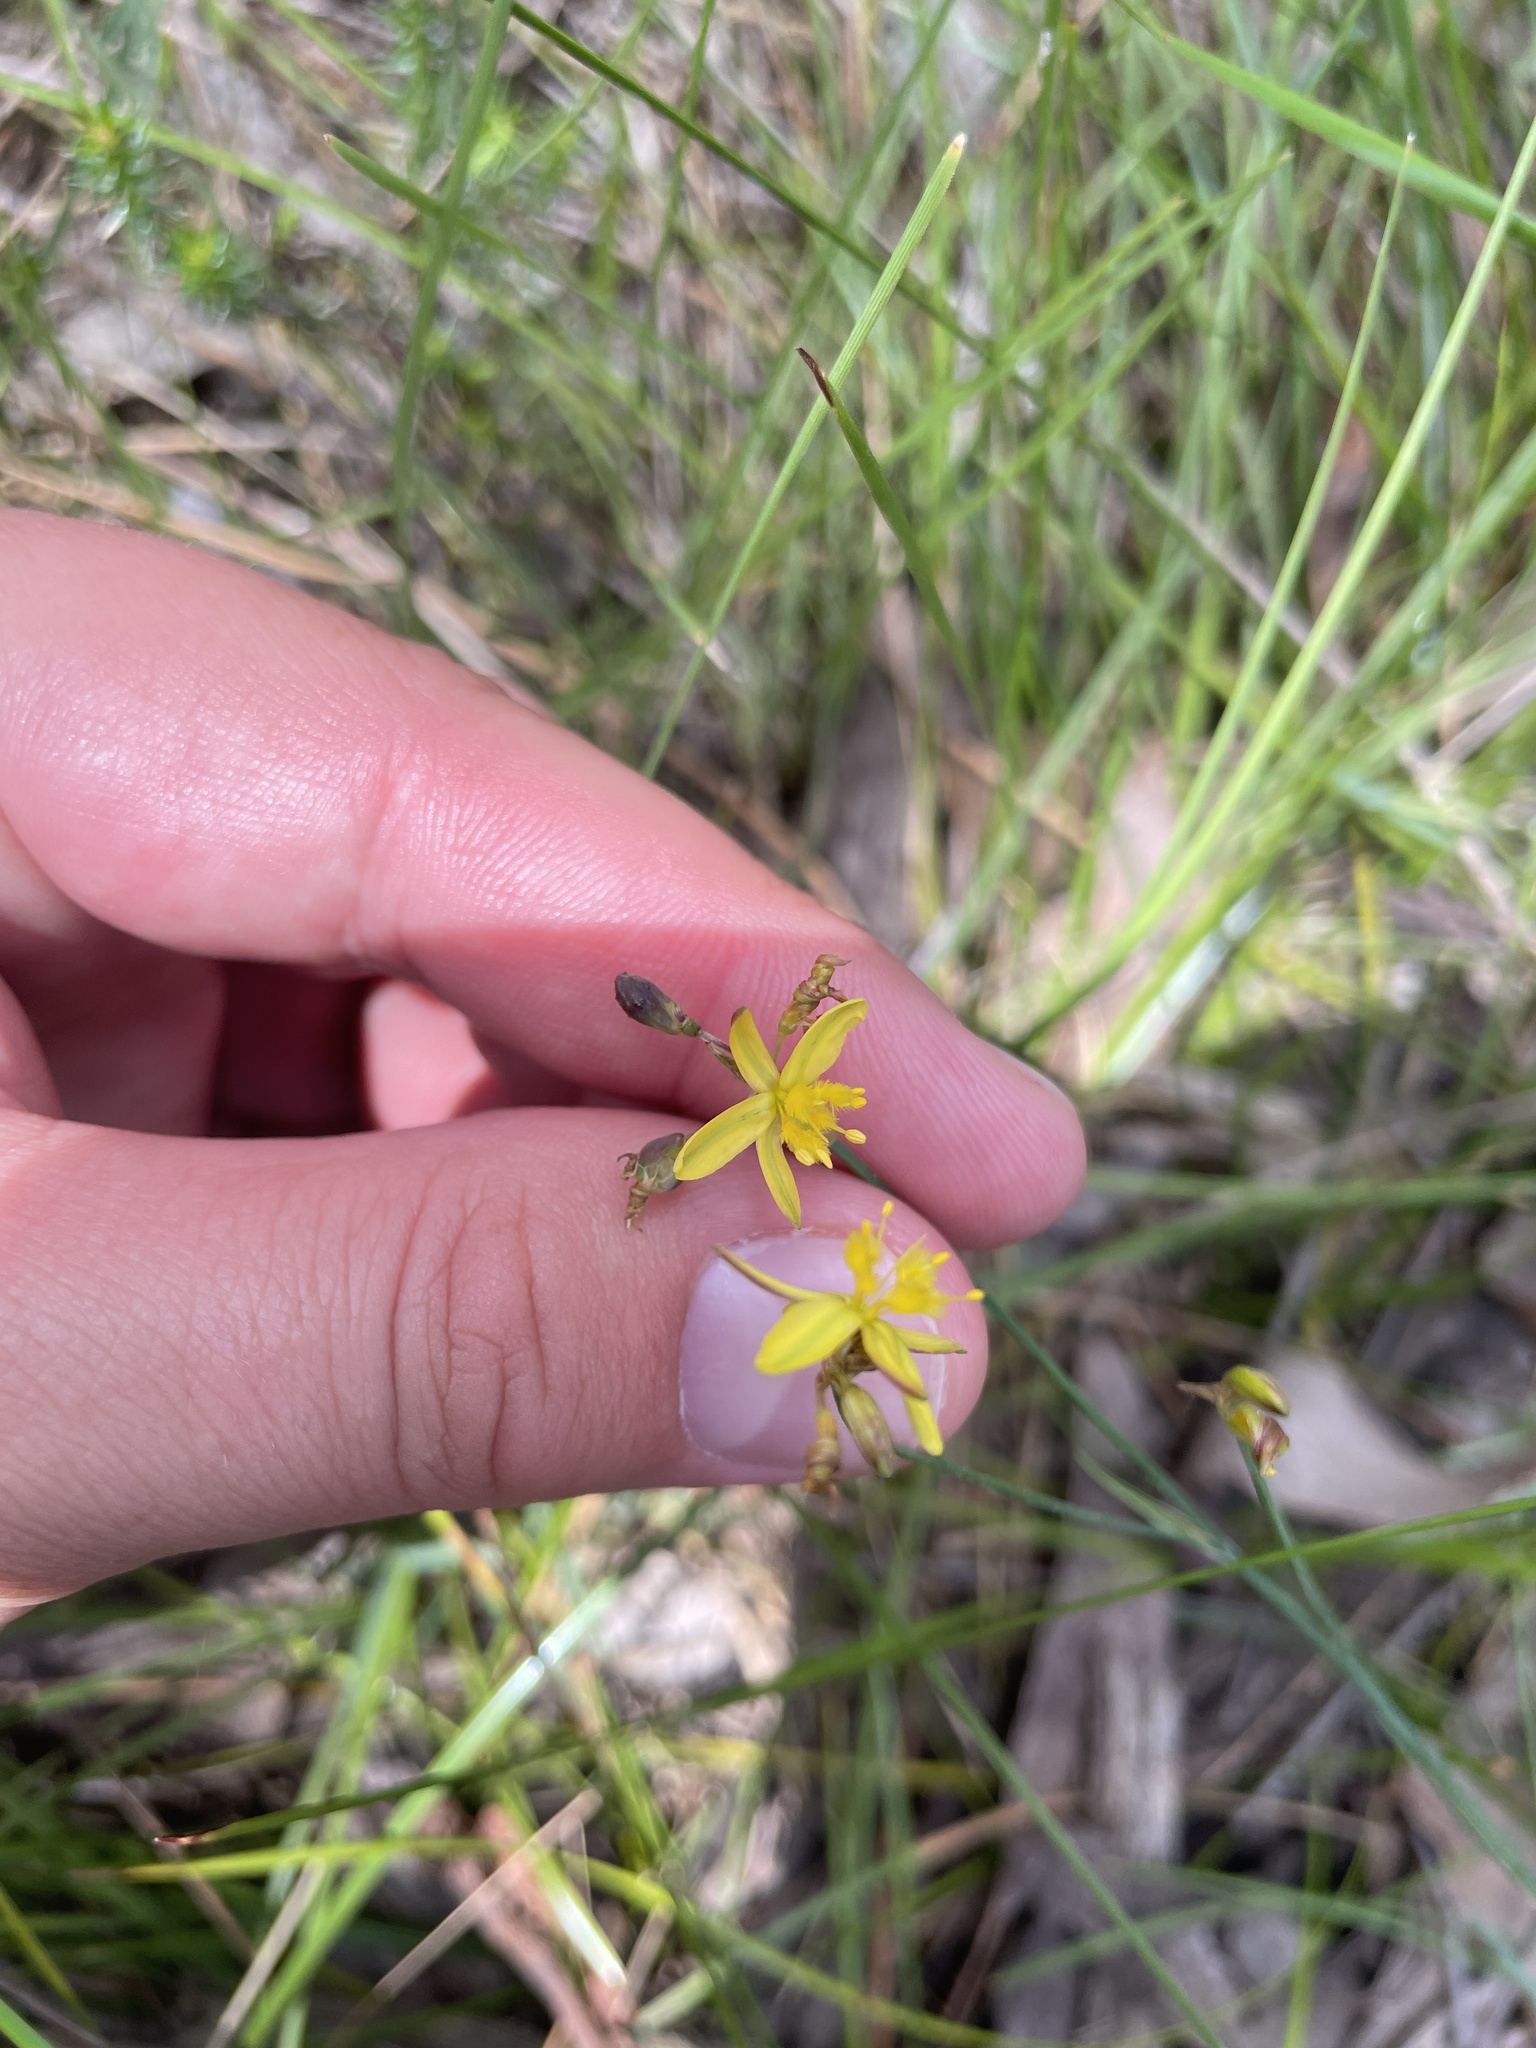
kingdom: Plantae
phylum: Tracheophyta
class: Liliopsida
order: Asparagales
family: Asphodelaceae
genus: Tricoryne
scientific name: Tricoryne elatior
